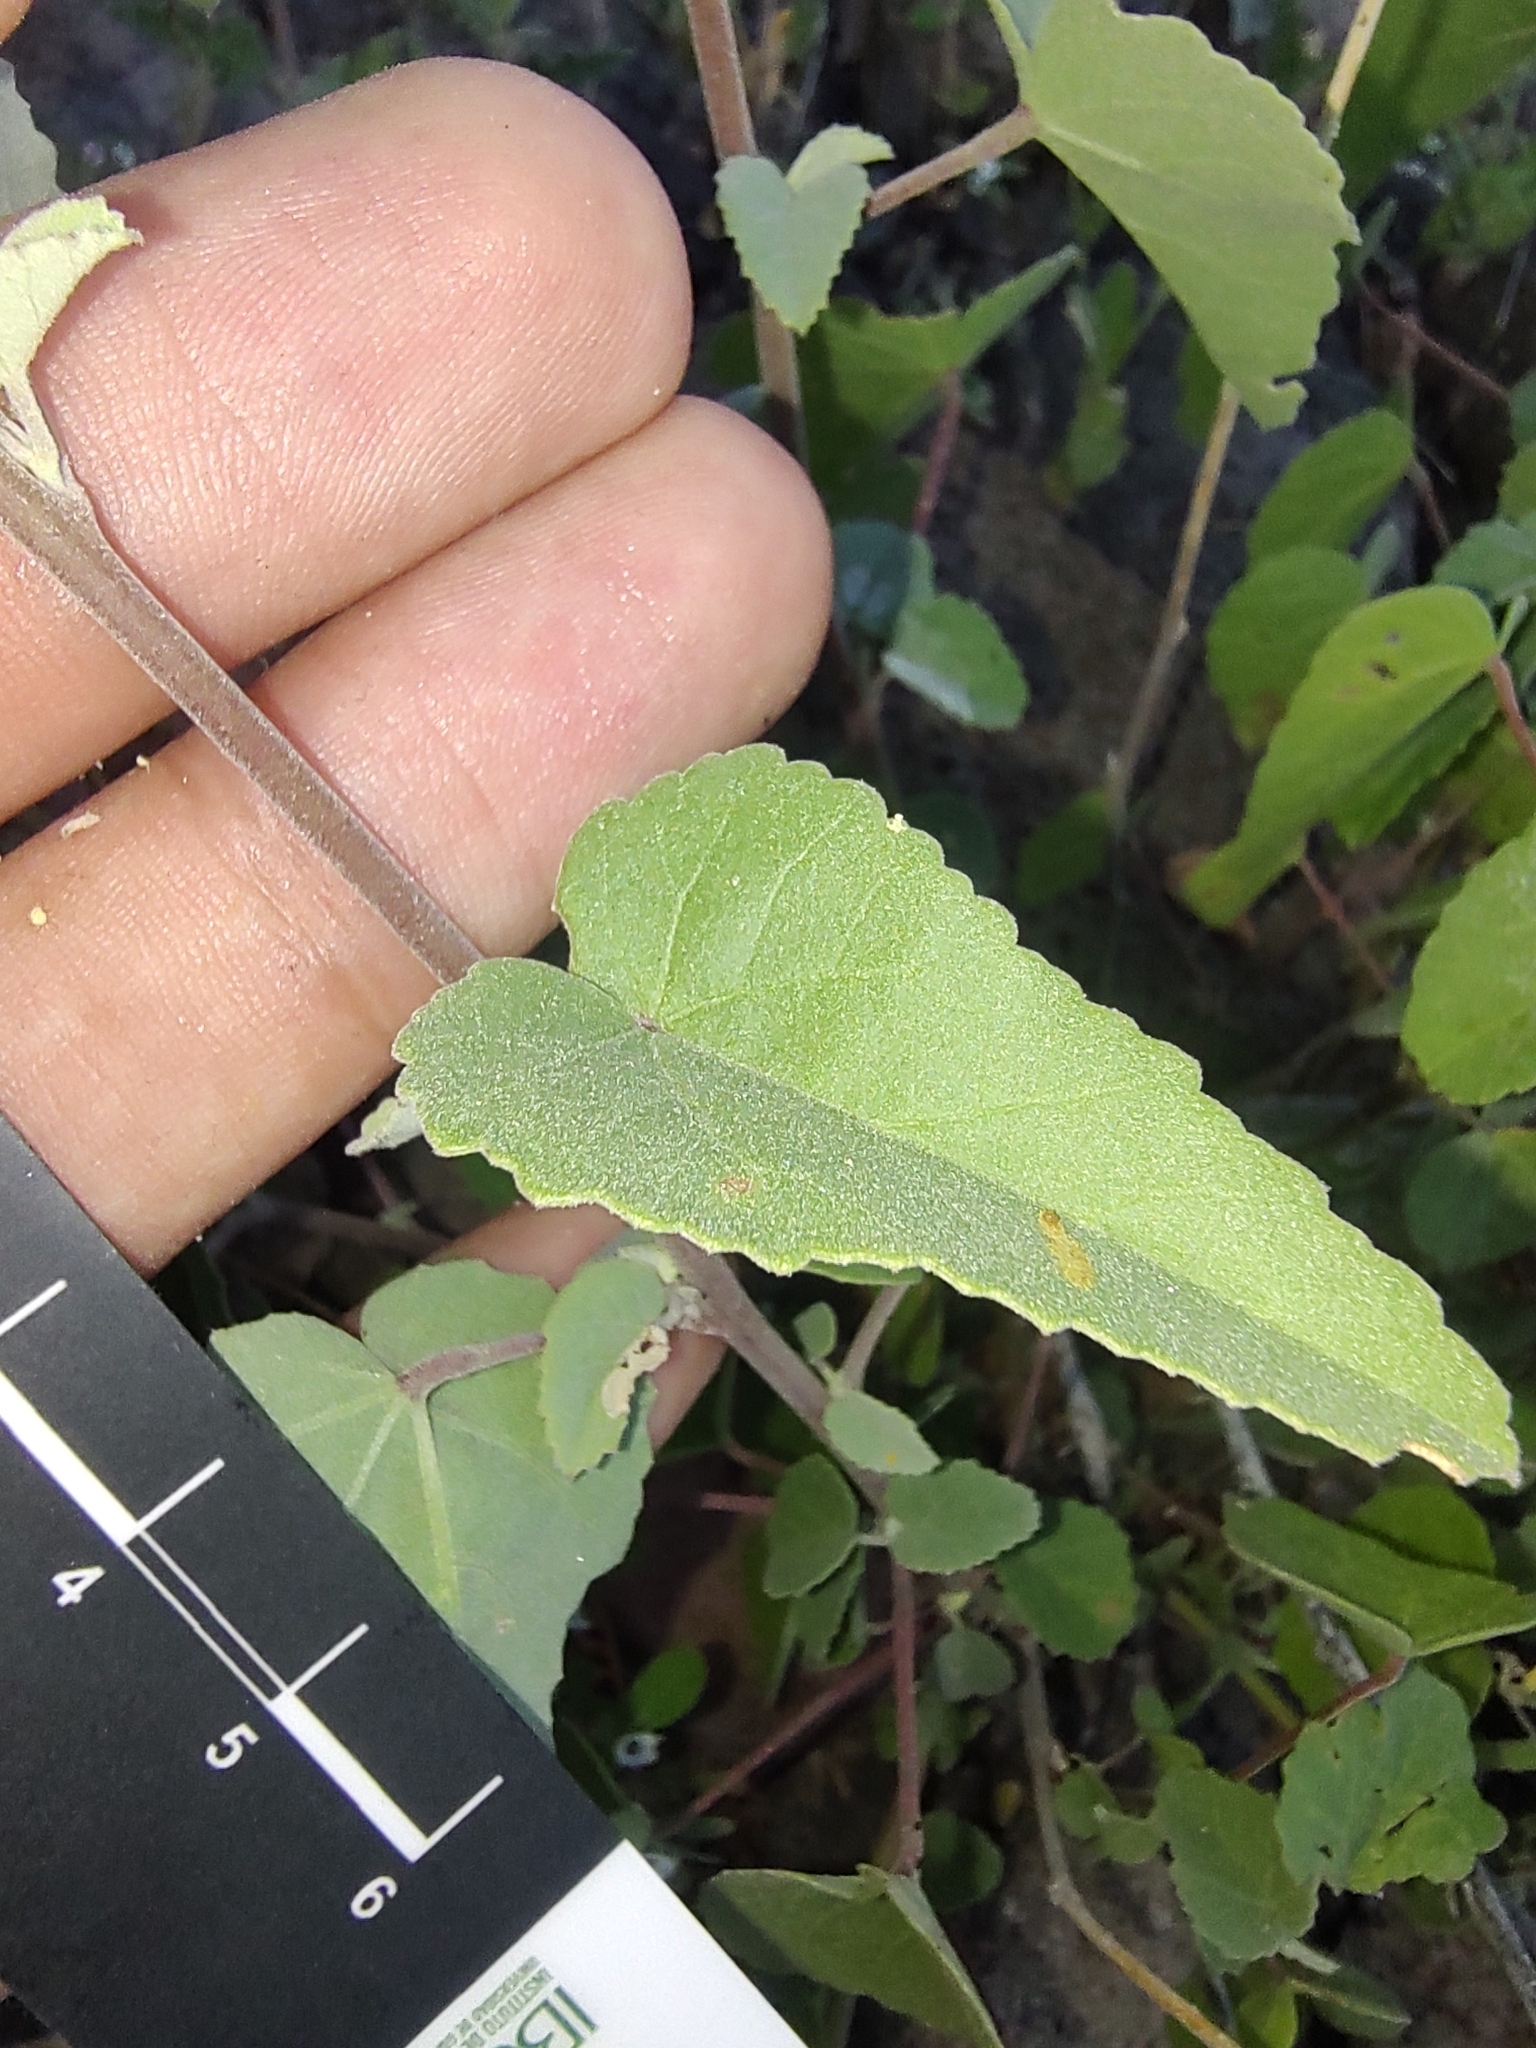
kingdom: Plantae
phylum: Tracheophyta
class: Magnoliopsida
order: Malvales
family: Malvaceae
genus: Horsfordia
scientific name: Horsfordia rotundifolia
